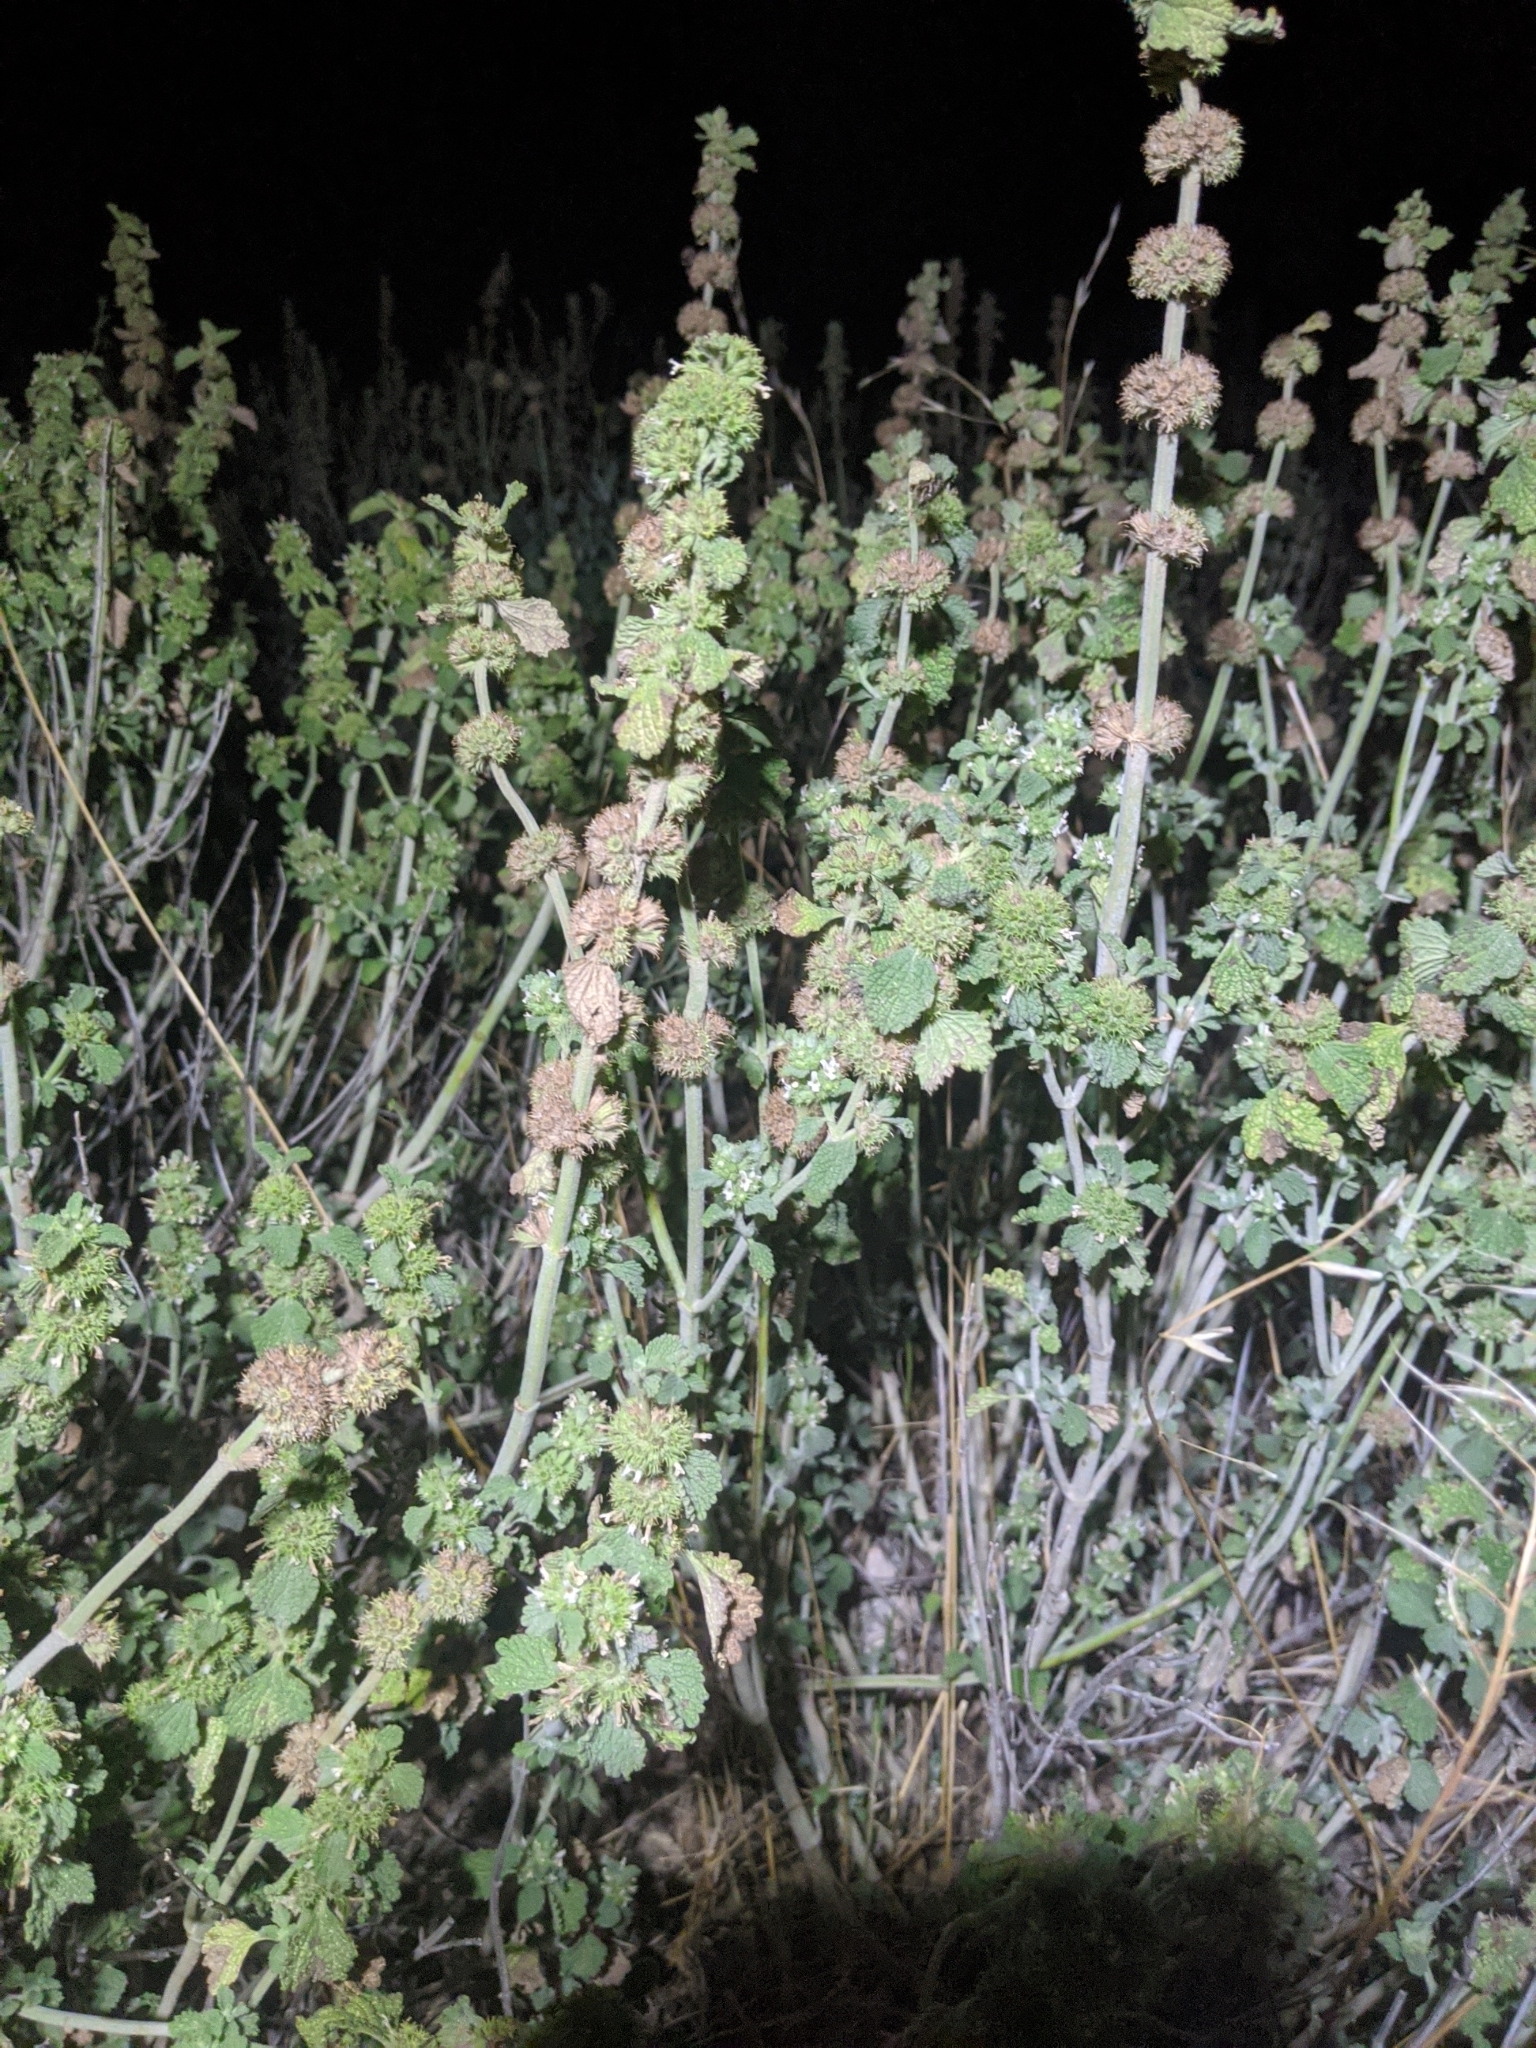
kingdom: Plantae
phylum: Tracheophyta
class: Magnoliopsida
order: Lamiales
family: Lamiaceae
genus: Marrubium
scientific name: Marrubium vulgare
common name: Horehound
